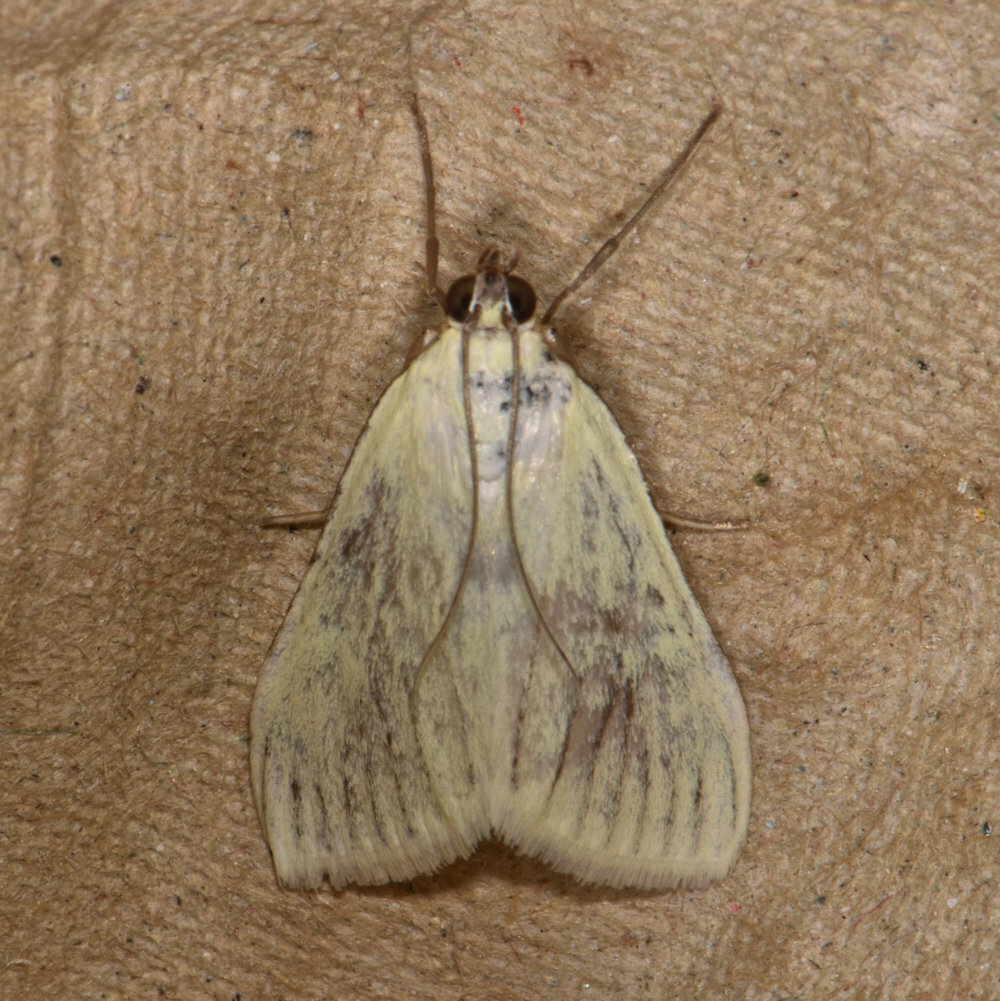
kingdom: Animalia
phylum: Arthropoda
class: Insecta
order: Lepidoptera
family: Crambidae
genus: Sitochroa
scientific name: Sitochroa palealis
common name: Greenish-yellow sitochroa moth
